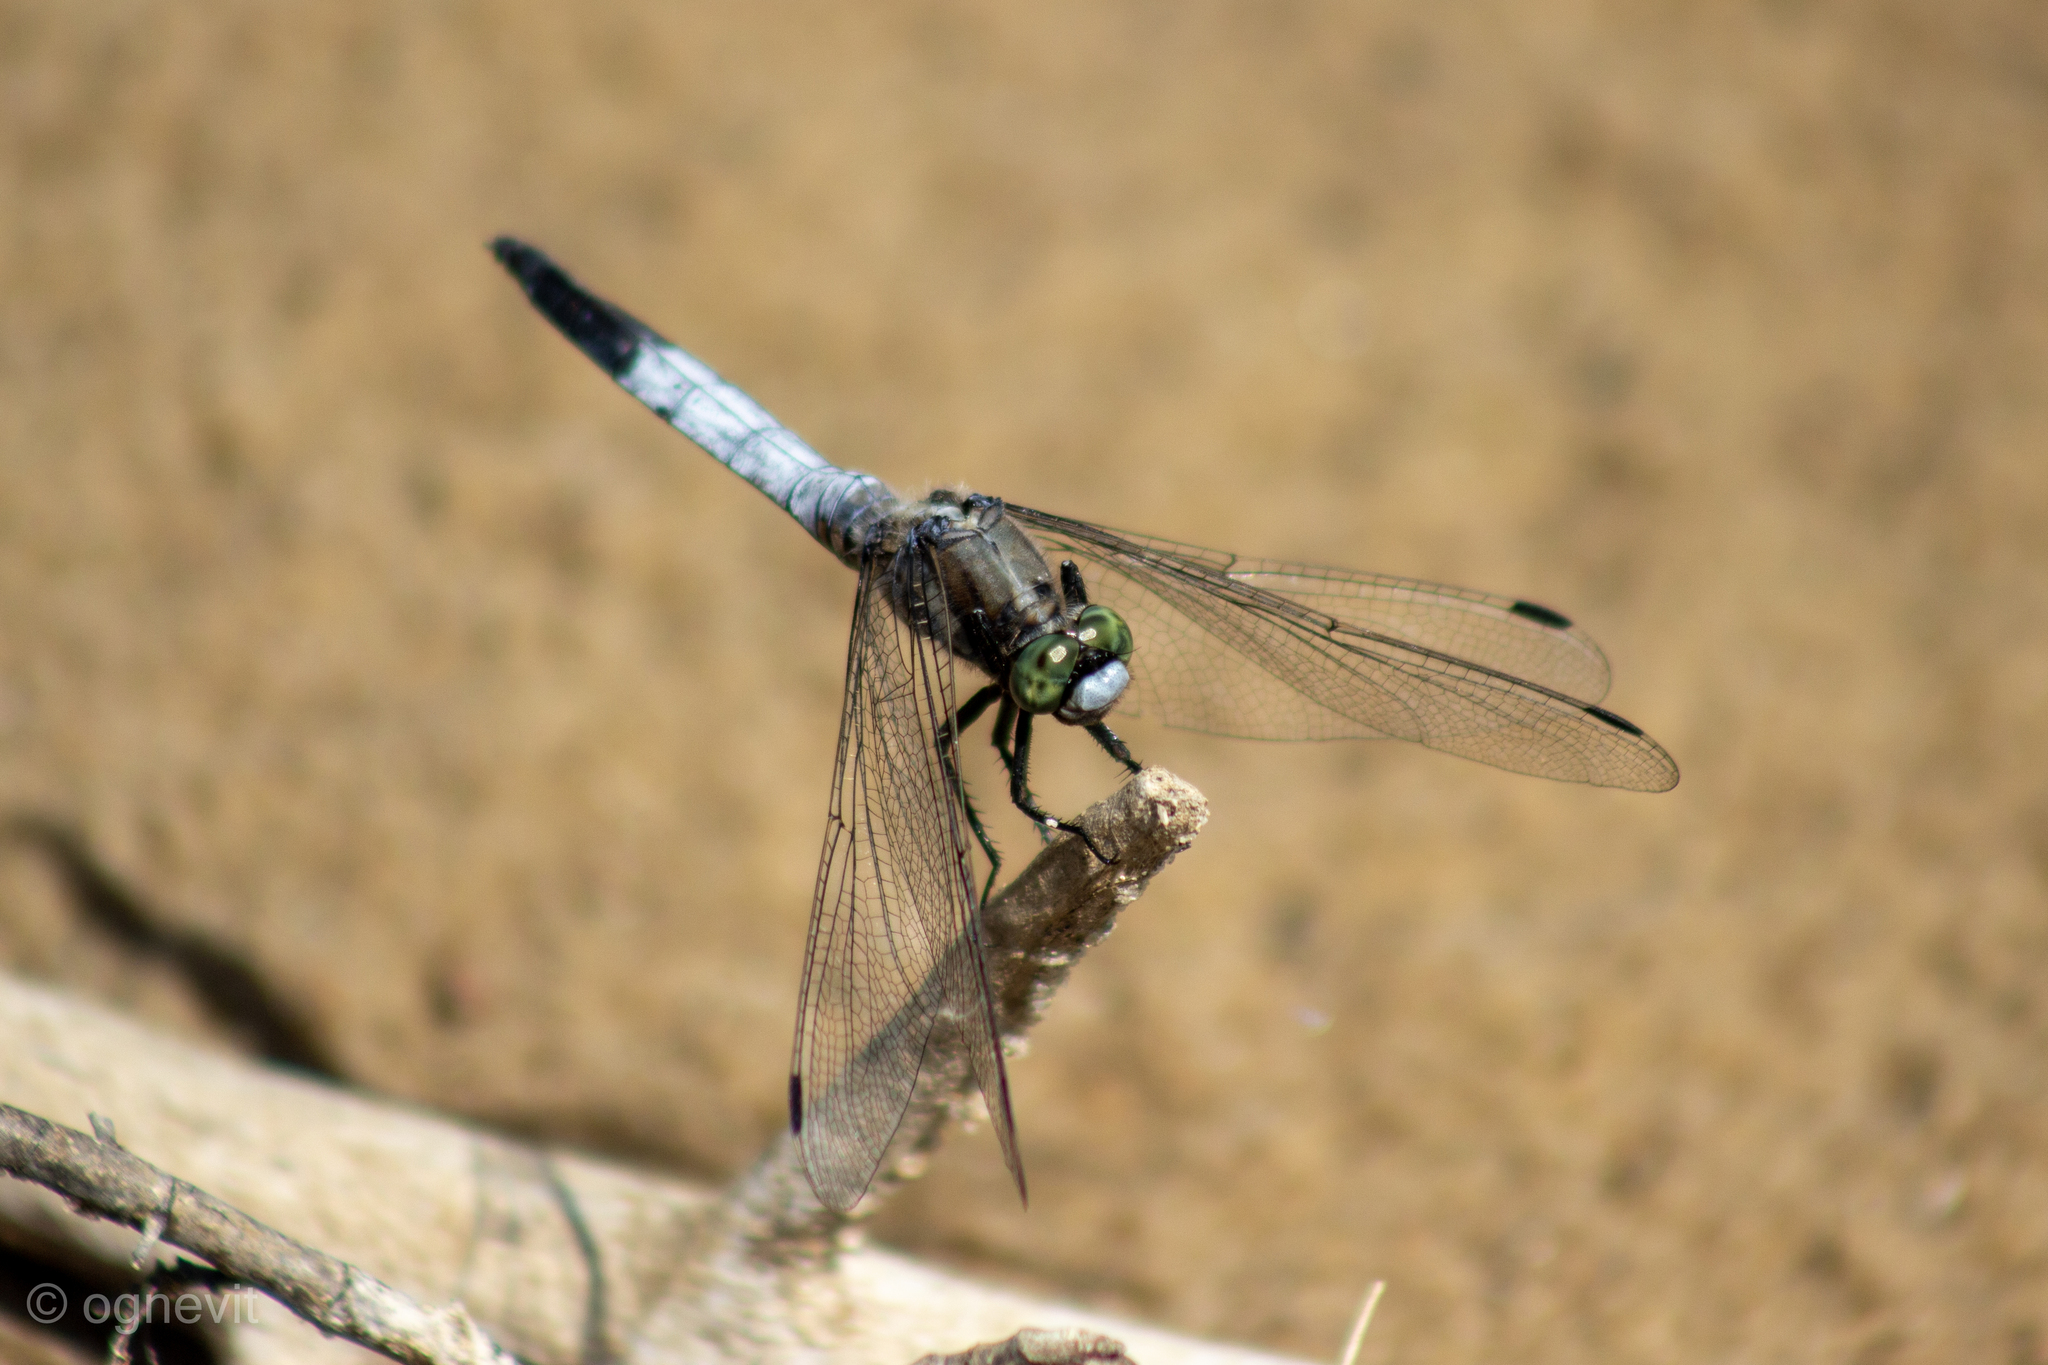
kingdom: Animalia
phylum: Arthropoda
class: Insecta
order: Odonata
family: Libellulidae
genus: Orthetrum
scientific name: Orthetrum albistylum
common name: White-tailed skimmer
